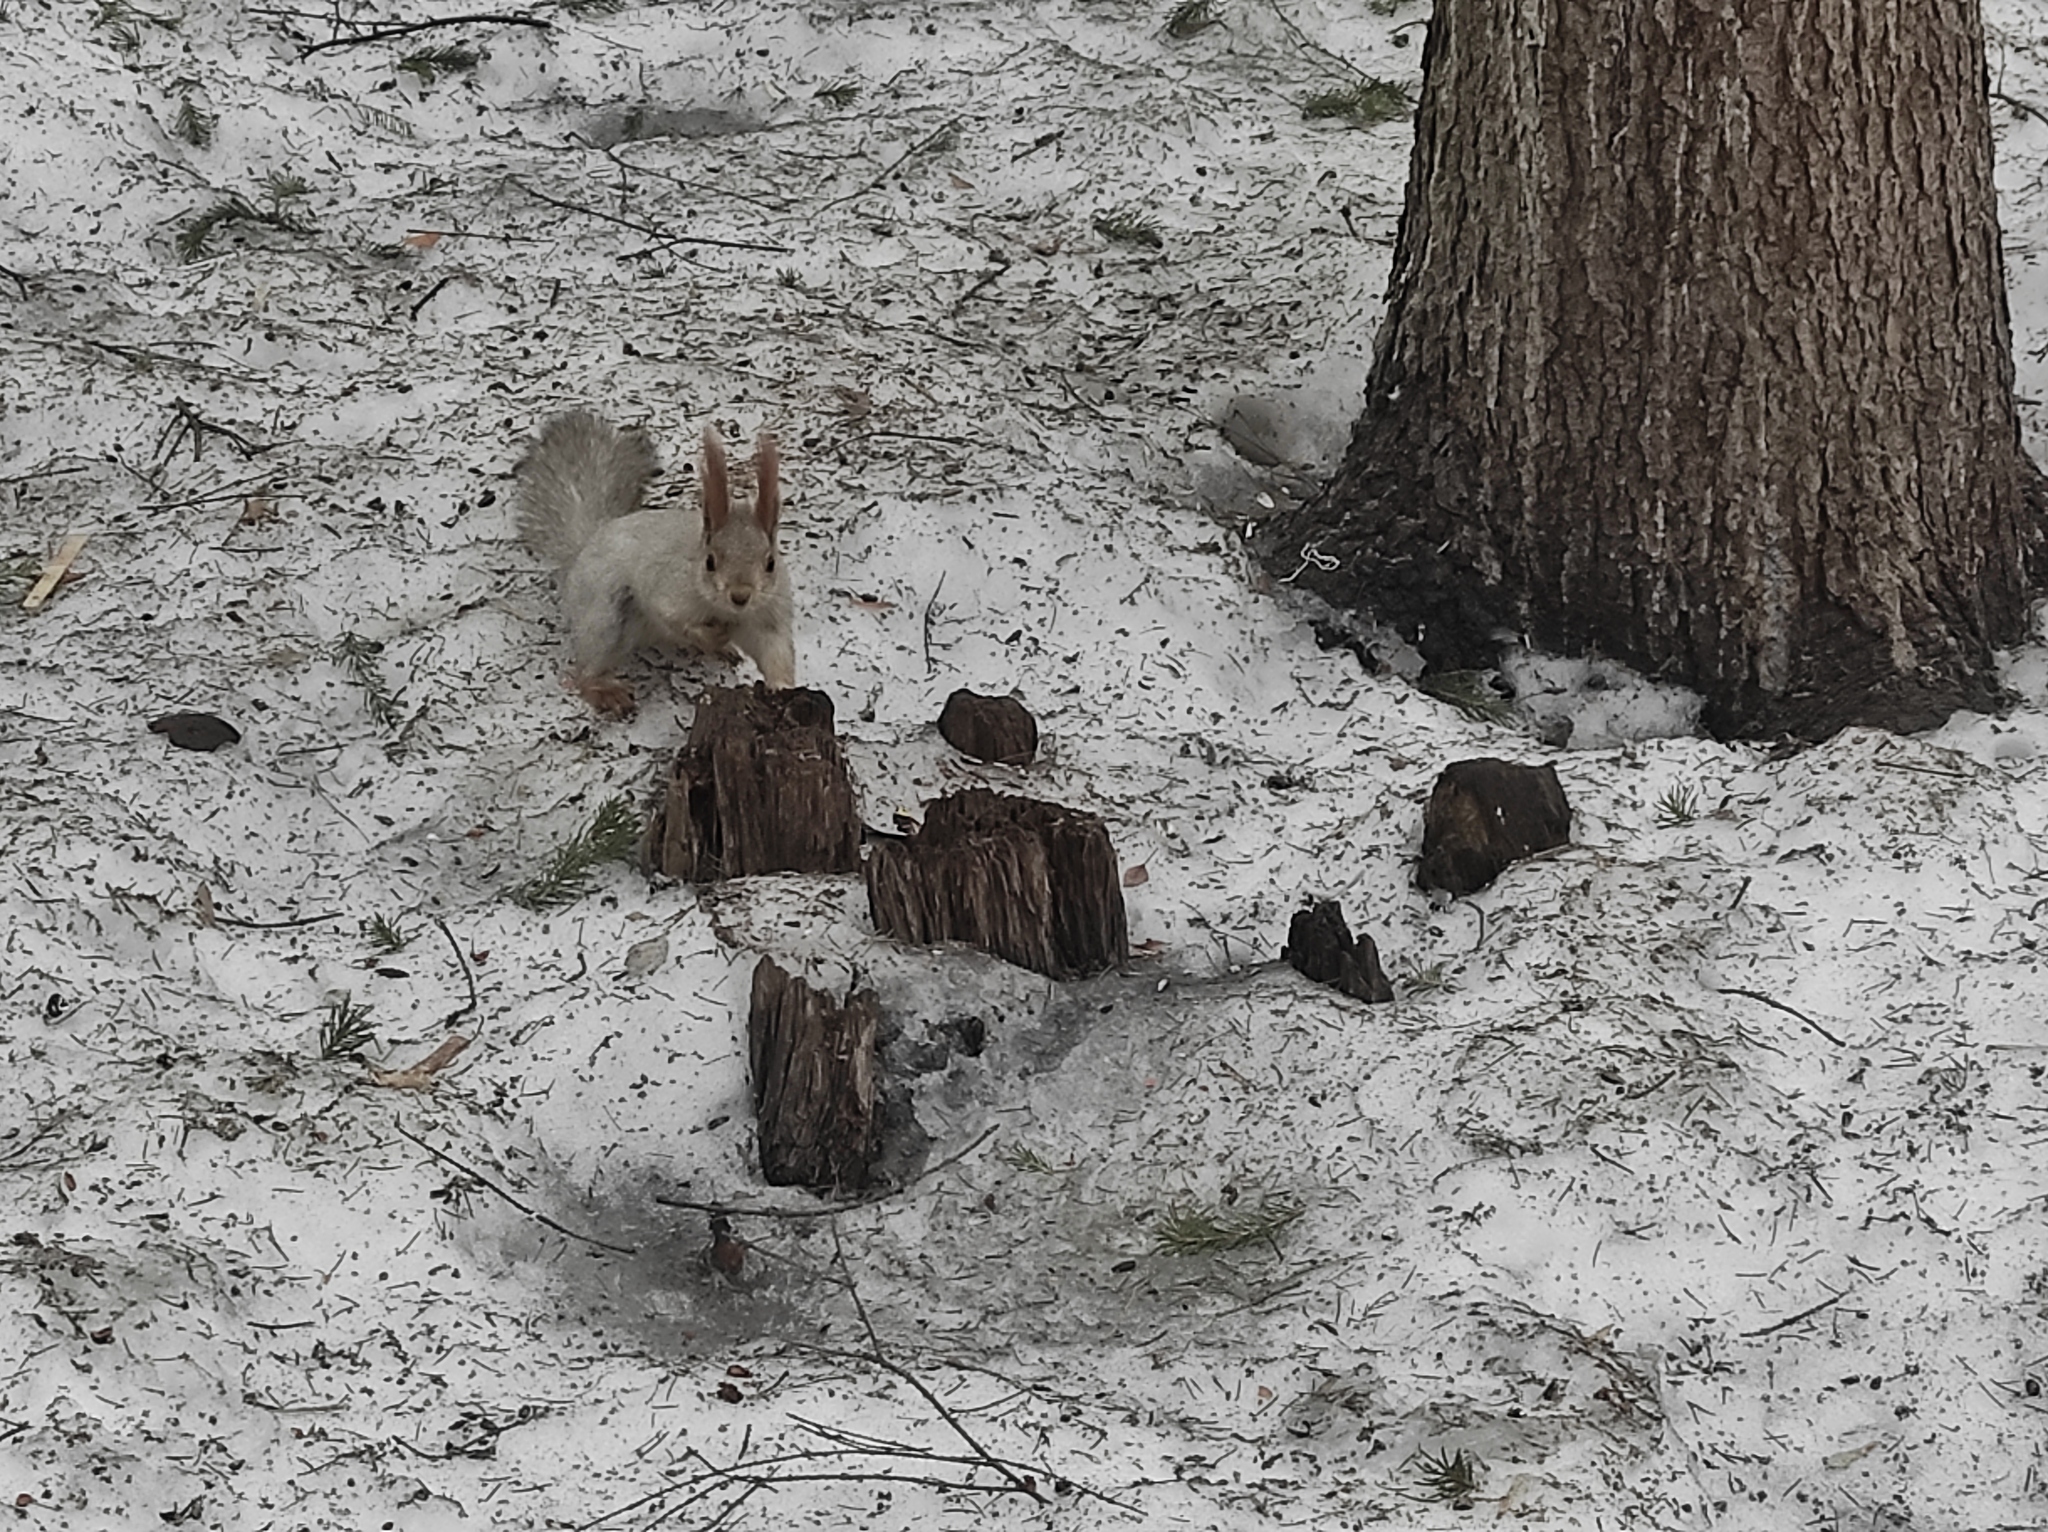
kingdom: Animalia
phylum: Chordata
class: Mammalia
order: Rodentia
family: Sciuridae
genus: Sciurus
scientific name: Sciurus vulgaris
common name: Eurasian red squirrel
